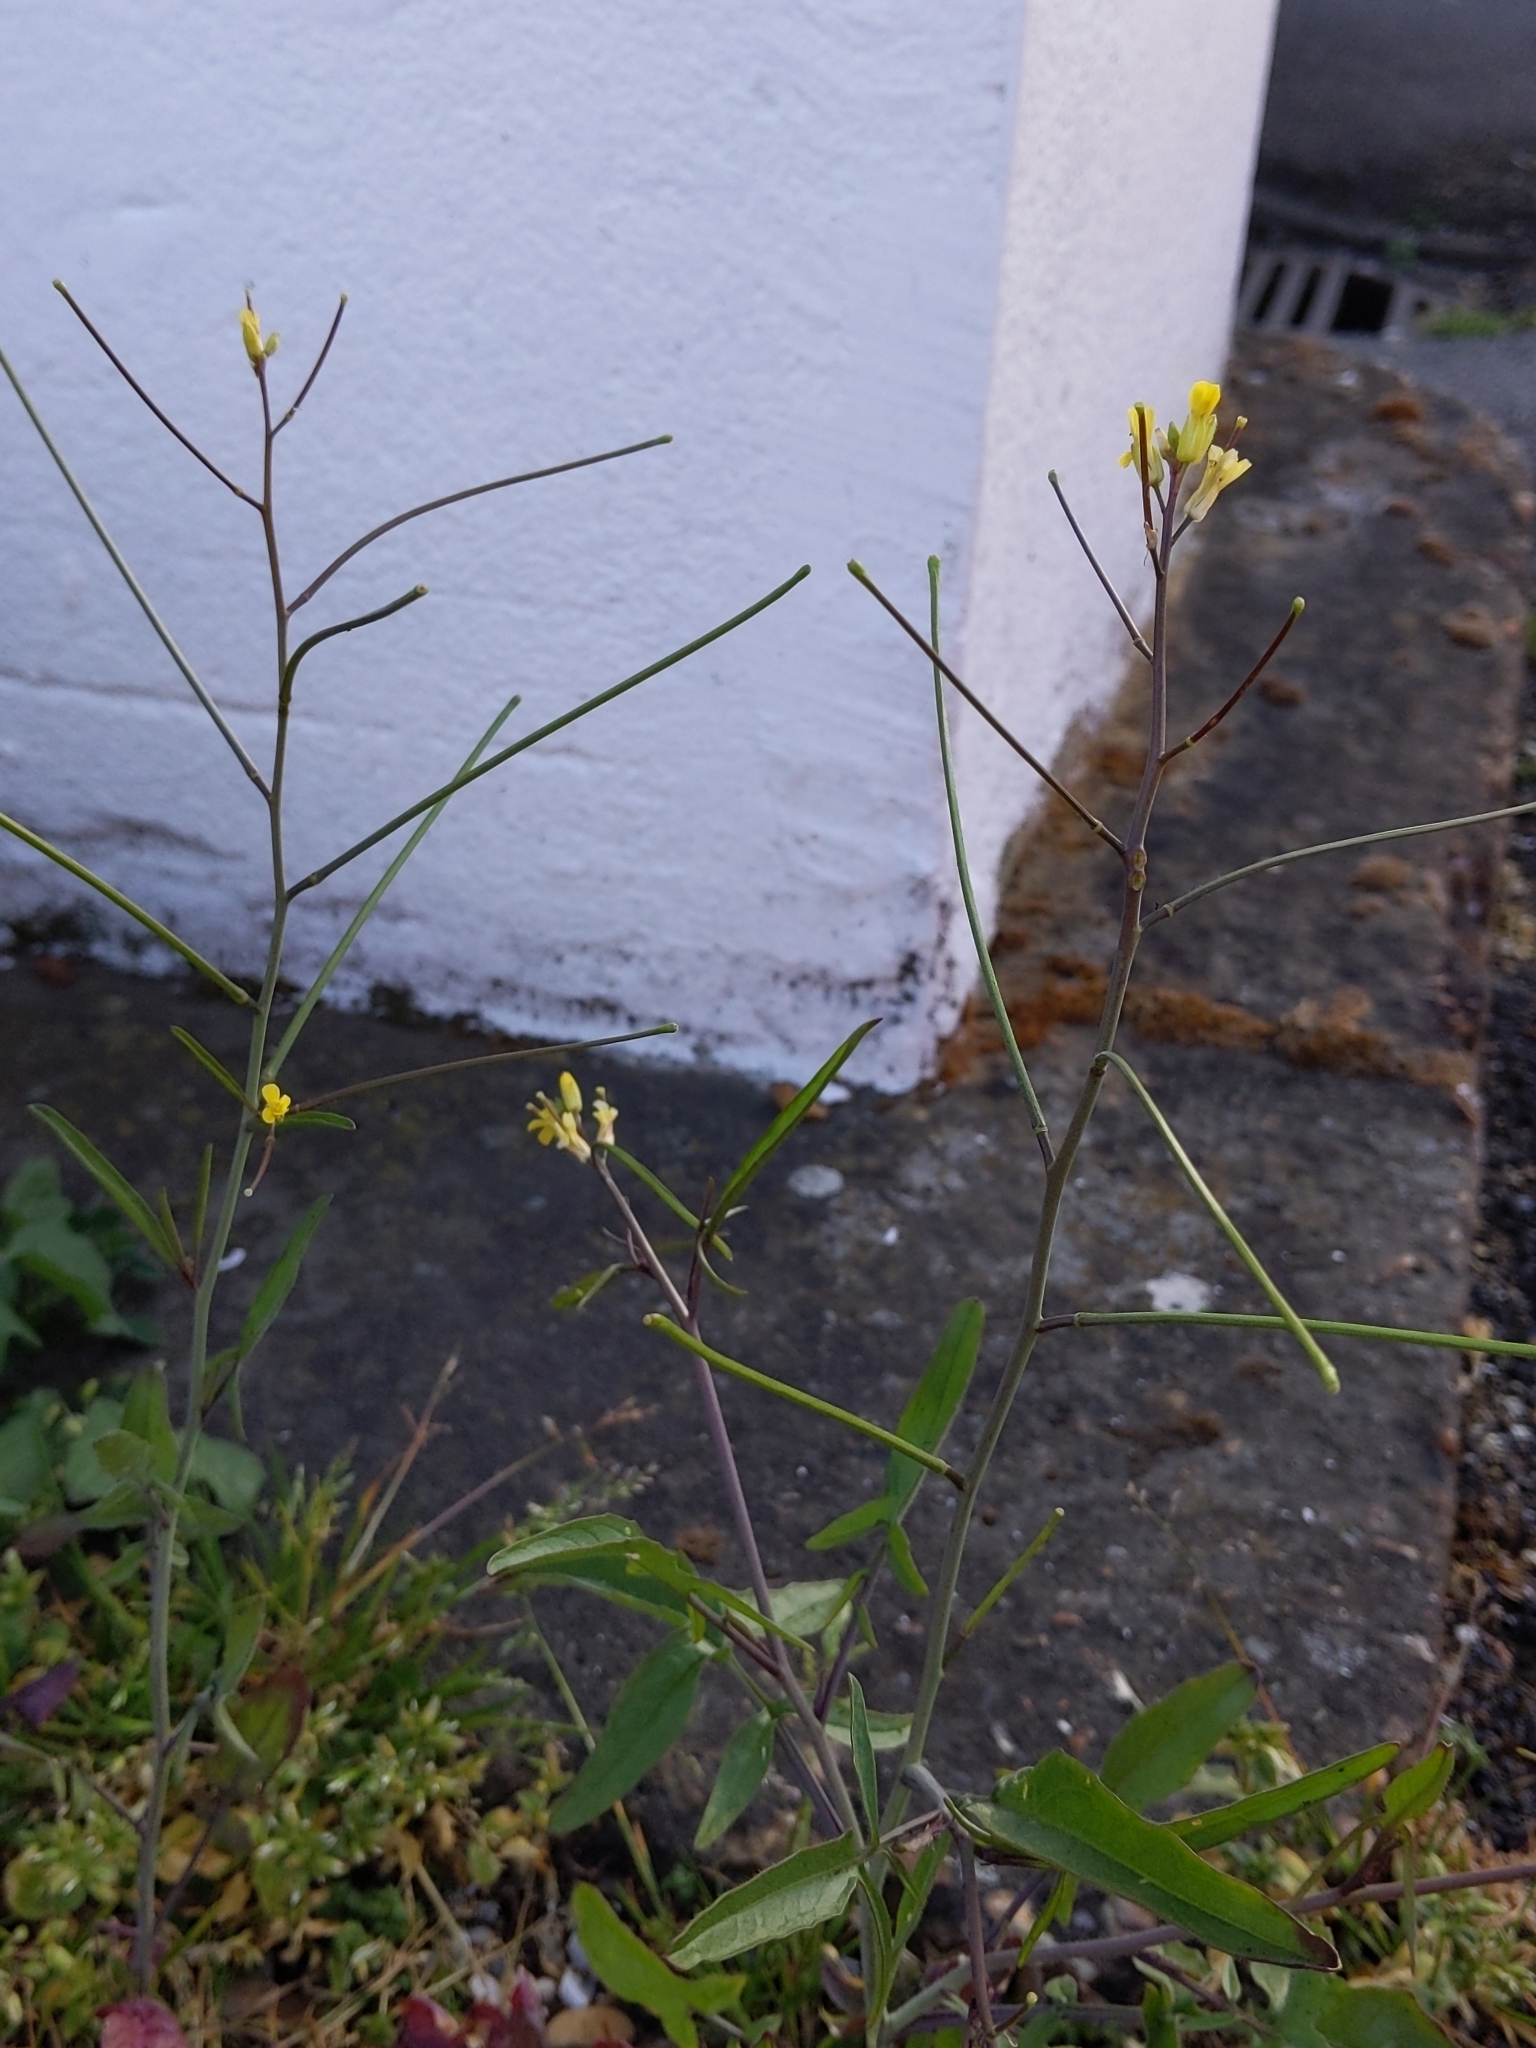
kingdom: Plantae
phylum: Tracheophyta
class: Magnoliopsida
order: Brassicales
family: Brassicaceae
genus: Sisymbrium
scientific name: Sisymbrium orientale
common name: Eastern rocket
